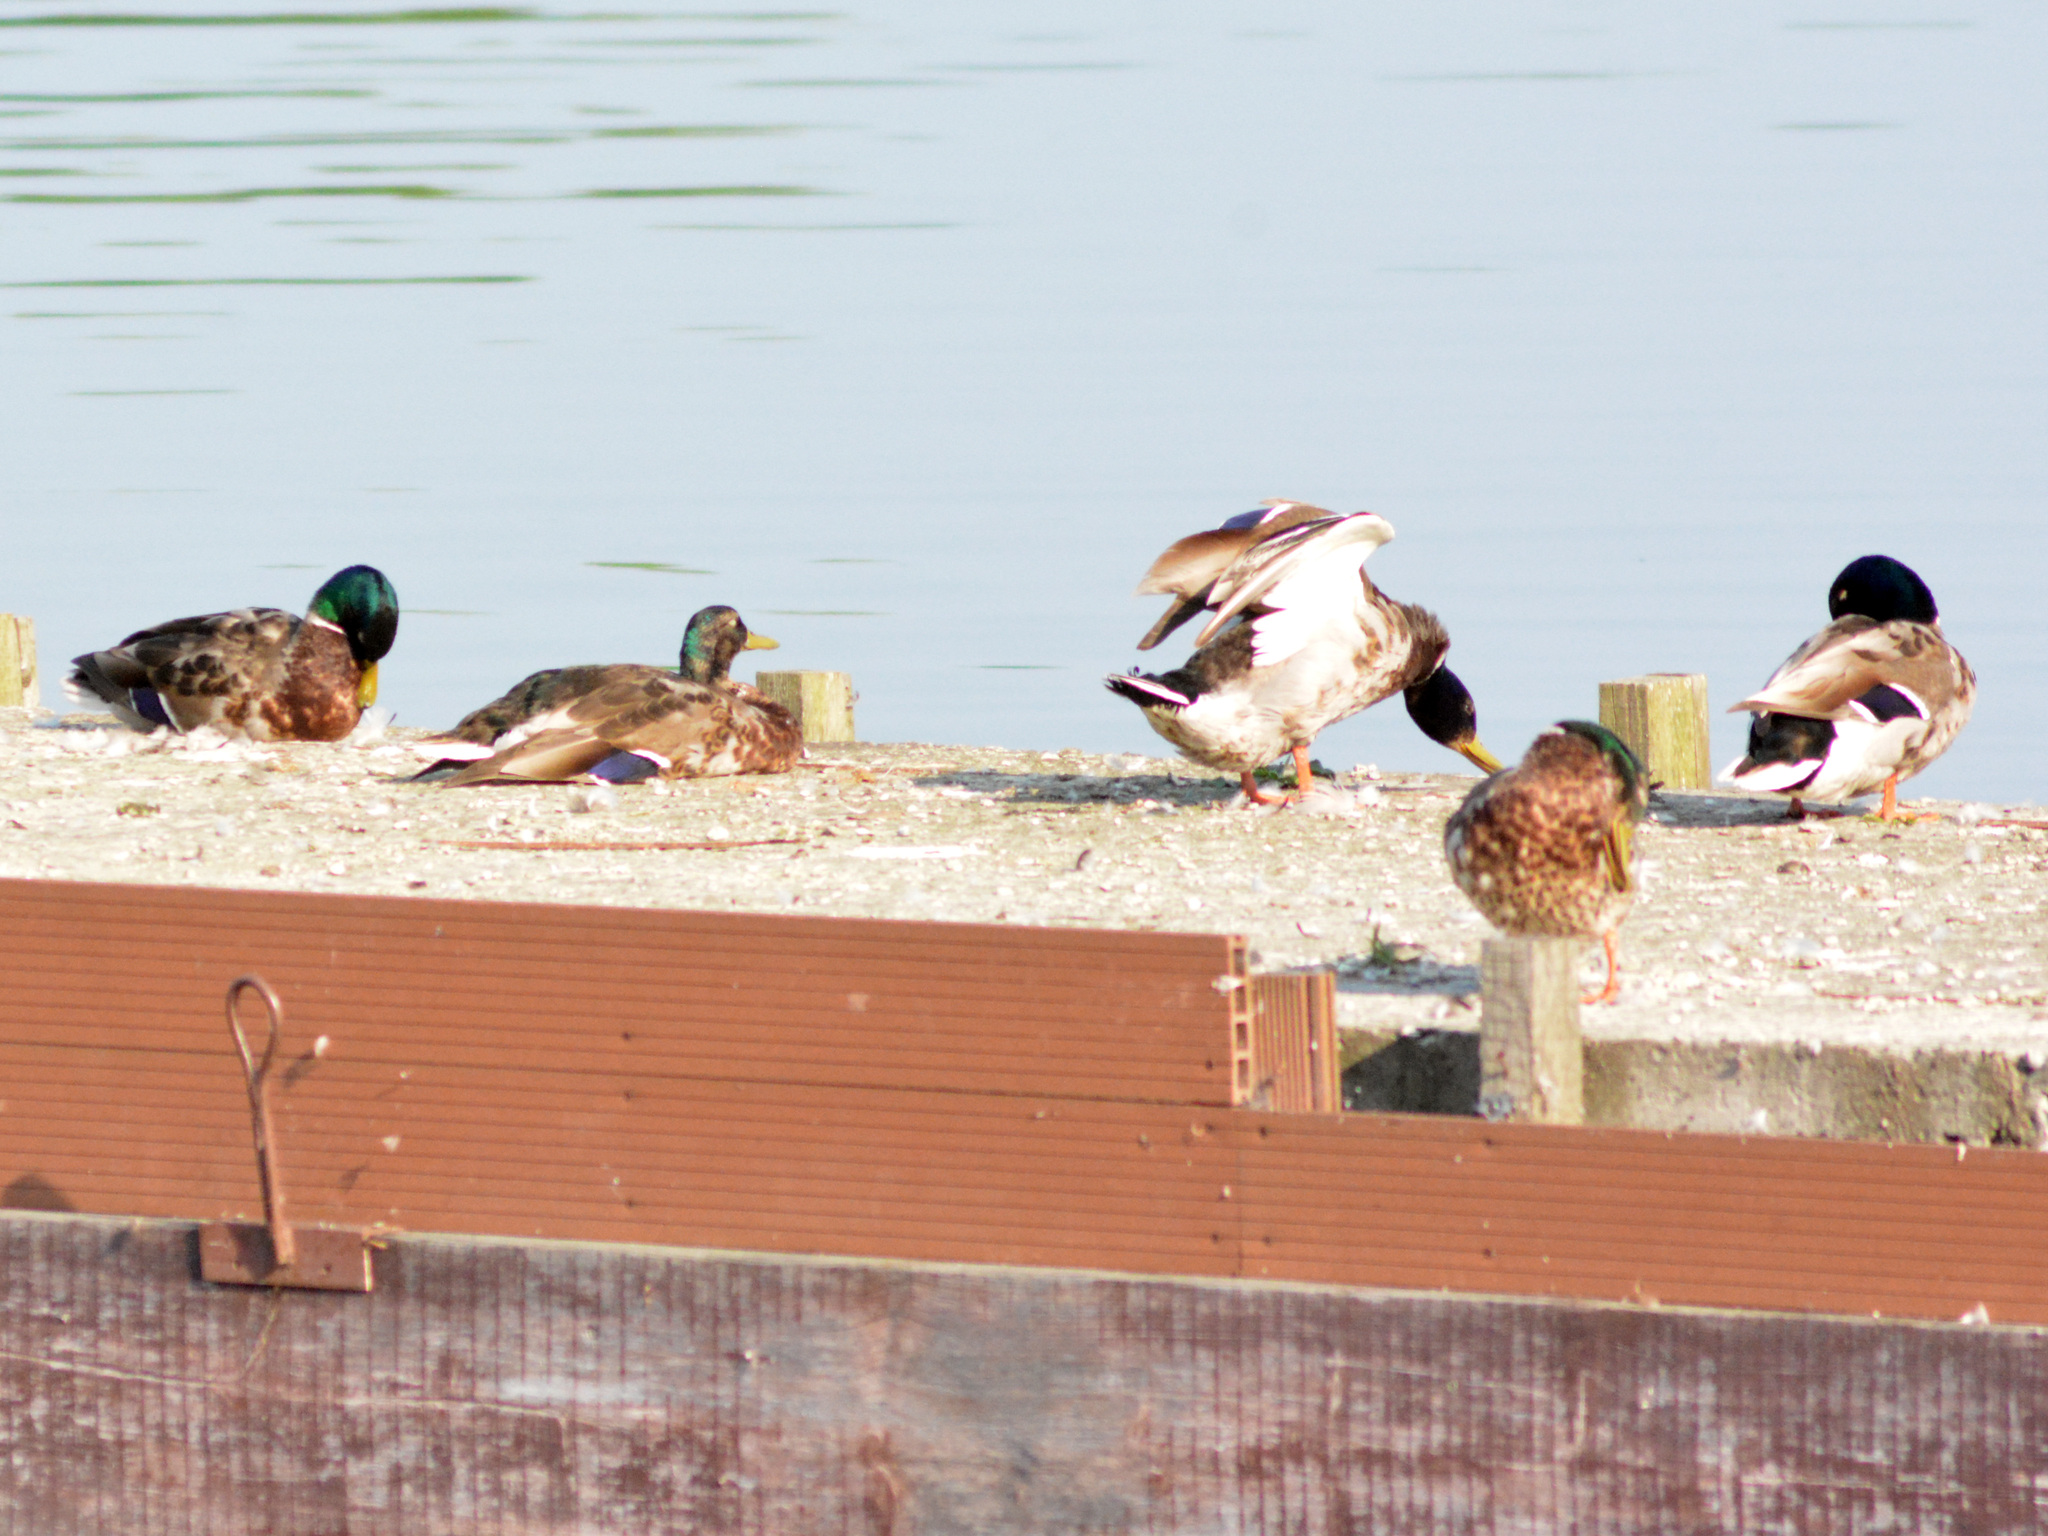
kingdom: Animalia
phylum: Chordata
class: Aves
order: Anseriformes
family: Anatidae
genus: Anas
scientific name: Anas platyrhynchos
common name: Mallard
